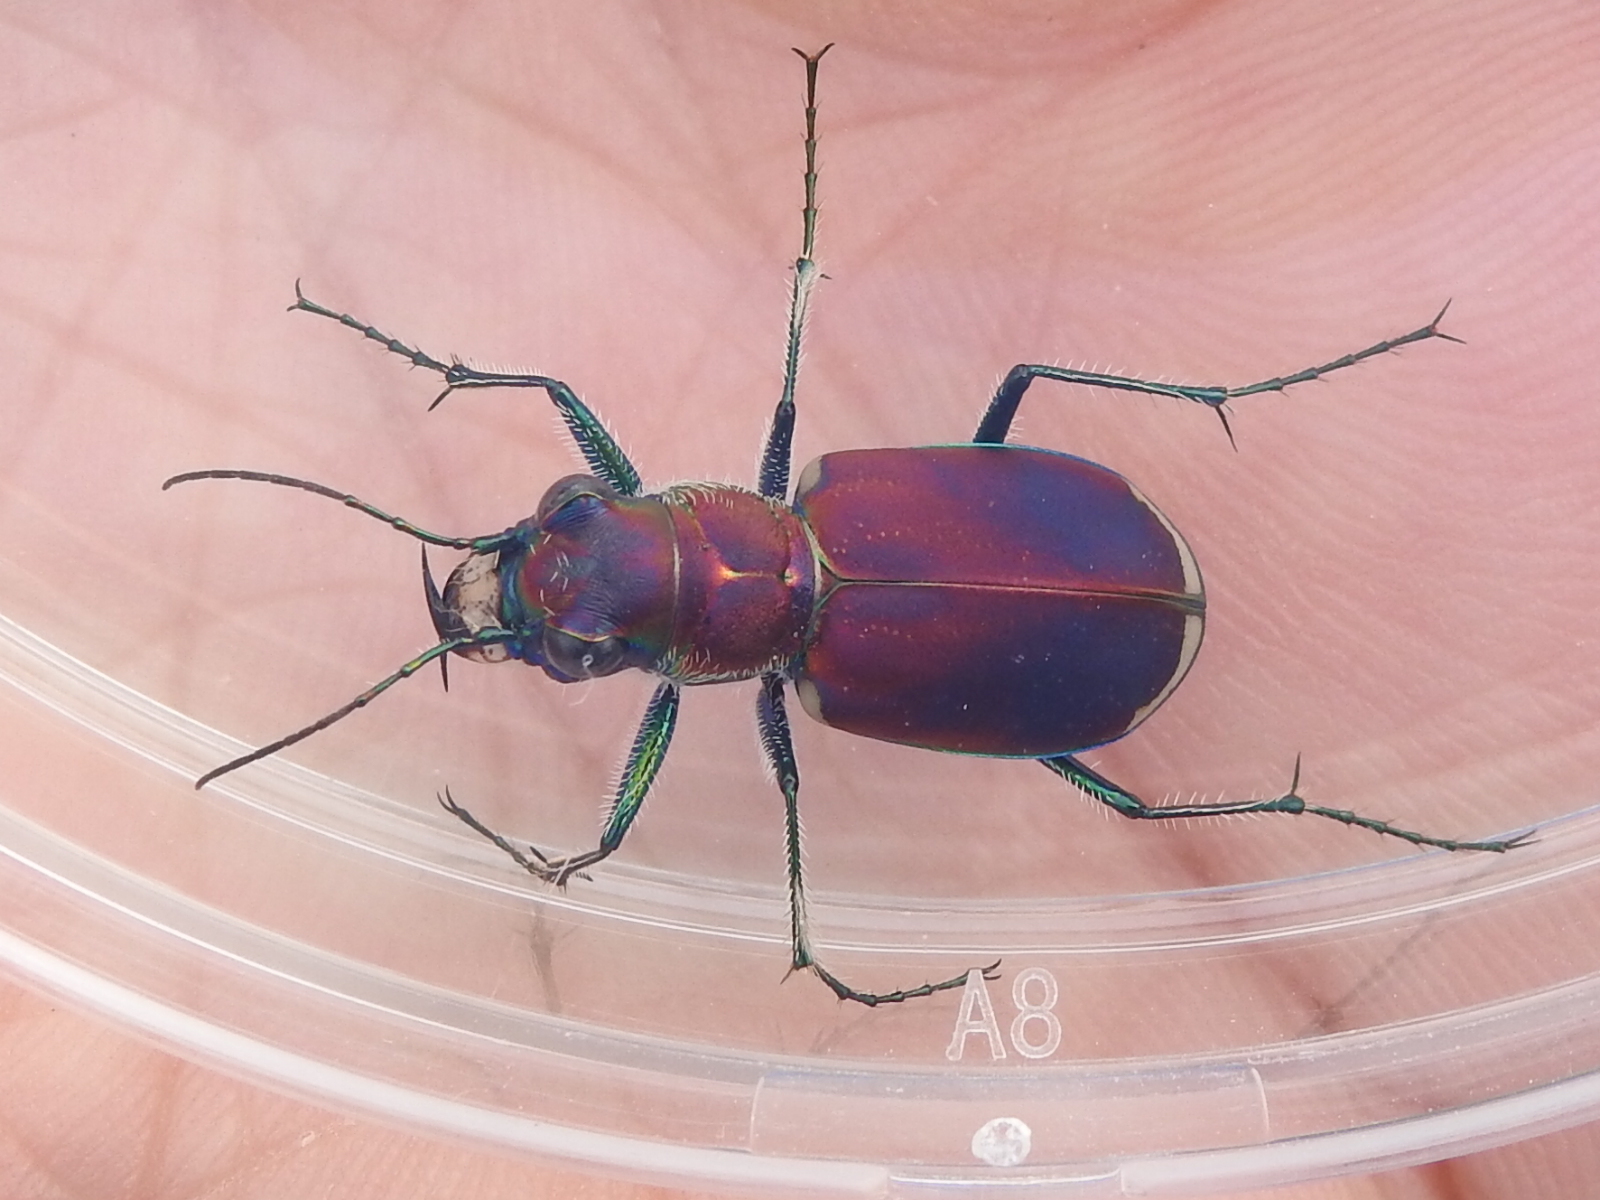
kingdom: Animalia
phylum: Arthropoda
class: Insecta
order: Coleoptera
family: Carabidae
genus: Cicindela
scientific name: Cicindela formosa
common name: Big sand tiger beetle
